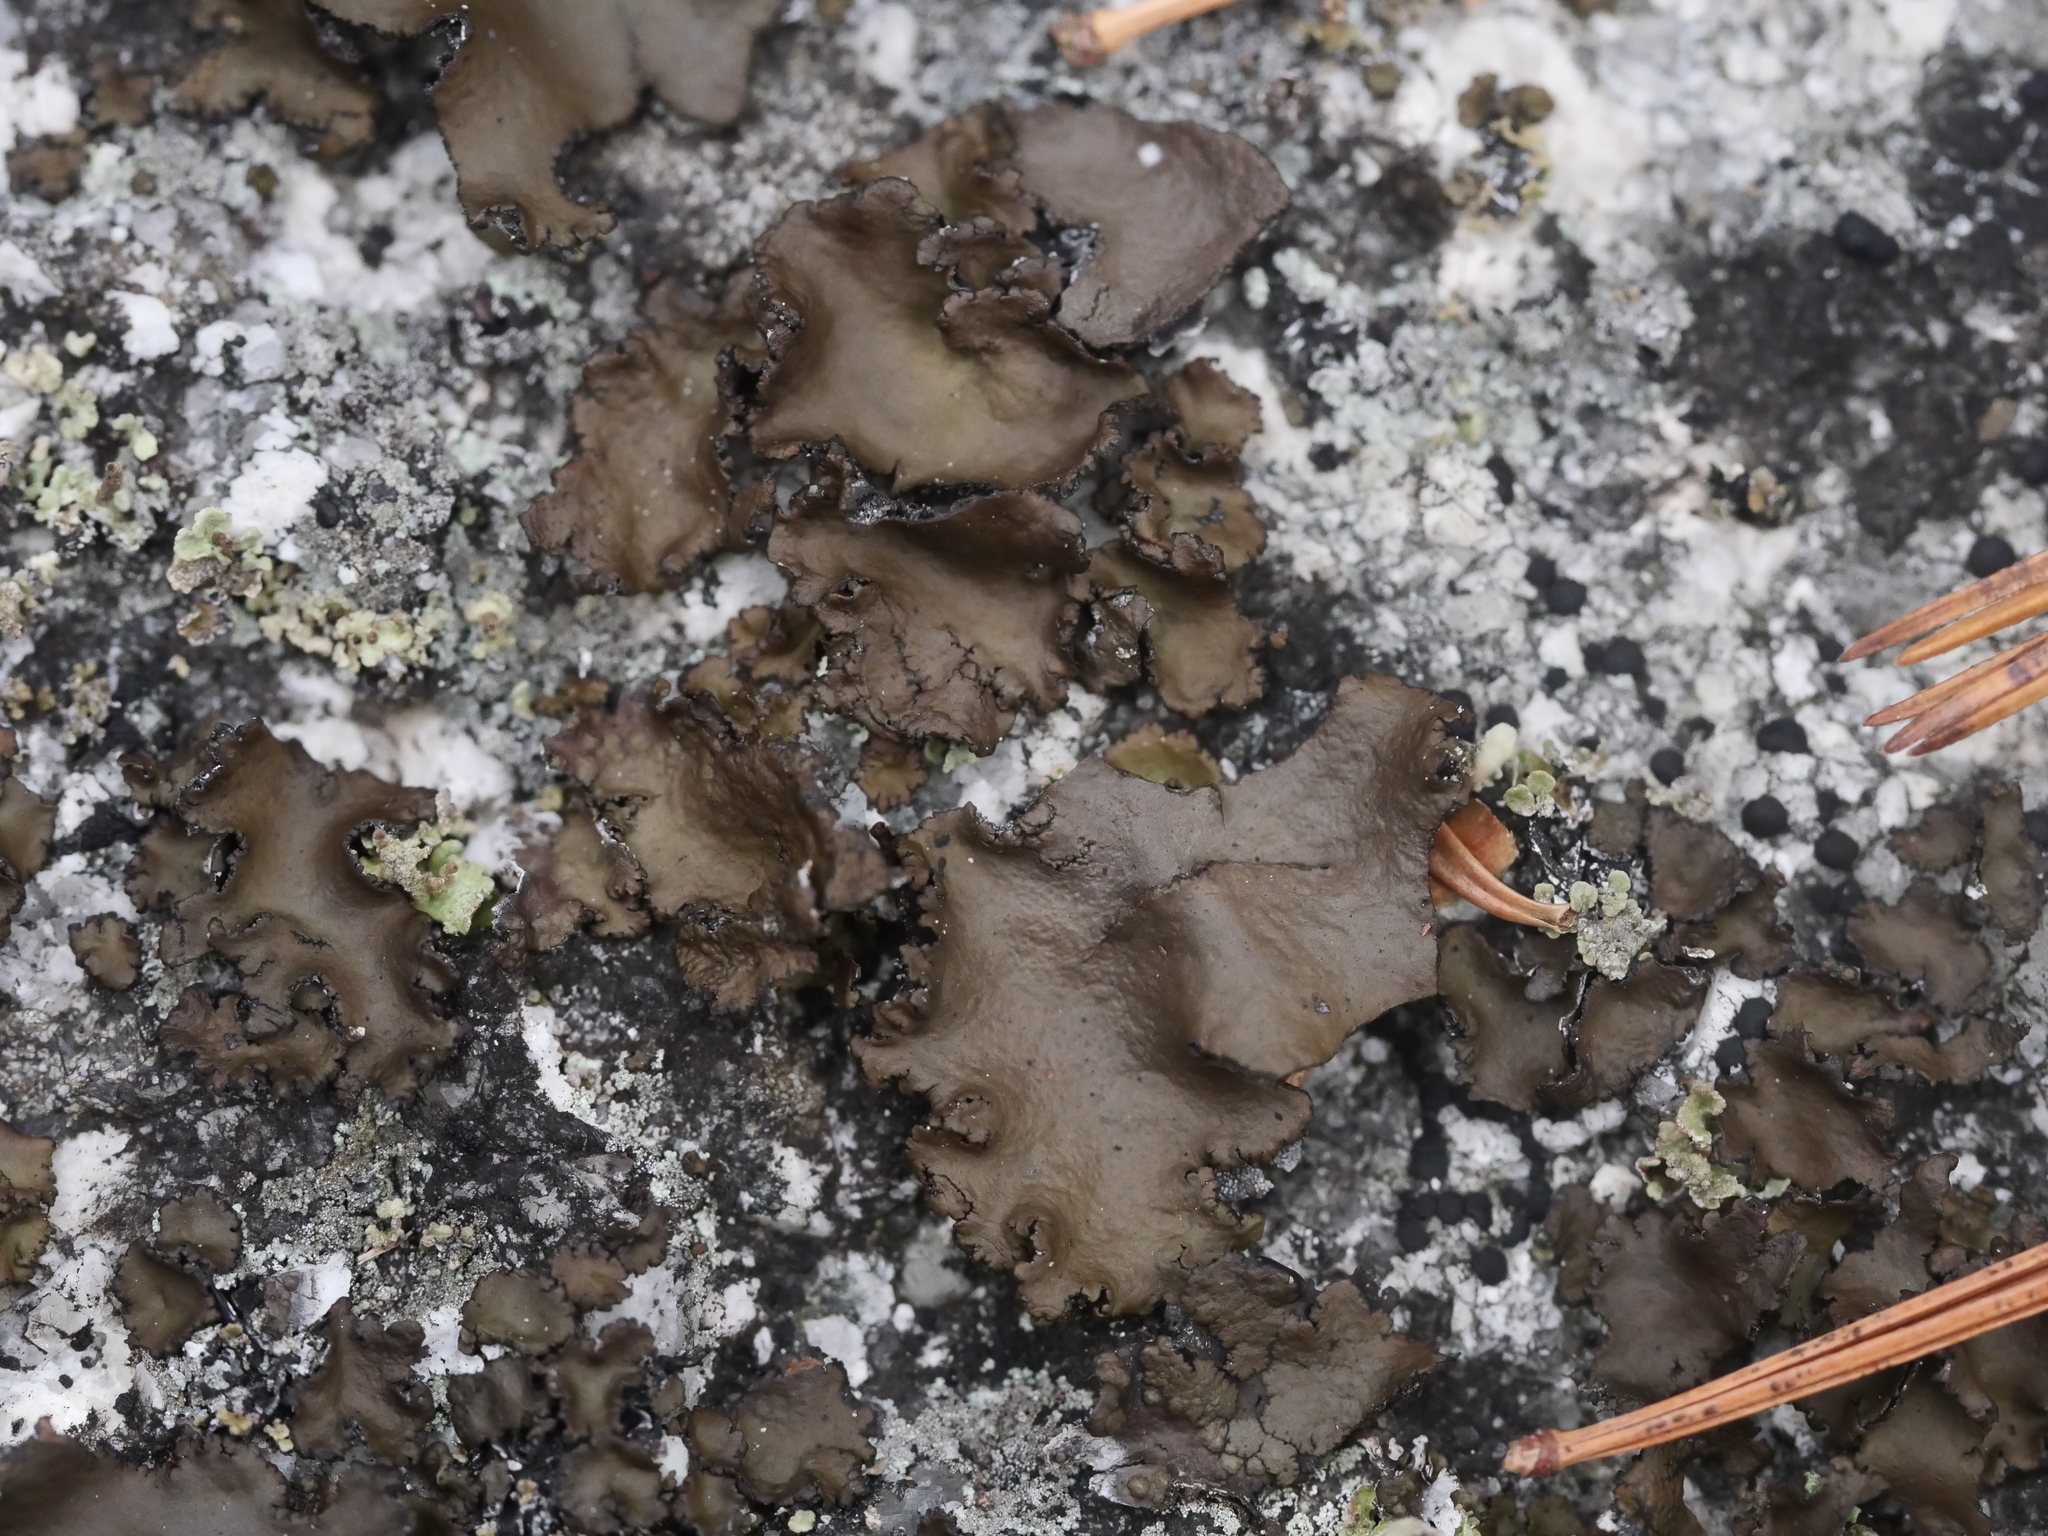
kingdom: Fungi
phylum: Ascomycota
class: Lecanoromycetes
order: Umbilicariales
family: Umbilicariaceae
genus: Umbilicaria
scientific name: Umbilicaria muhlenbergii
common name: Lesser rocktripe
